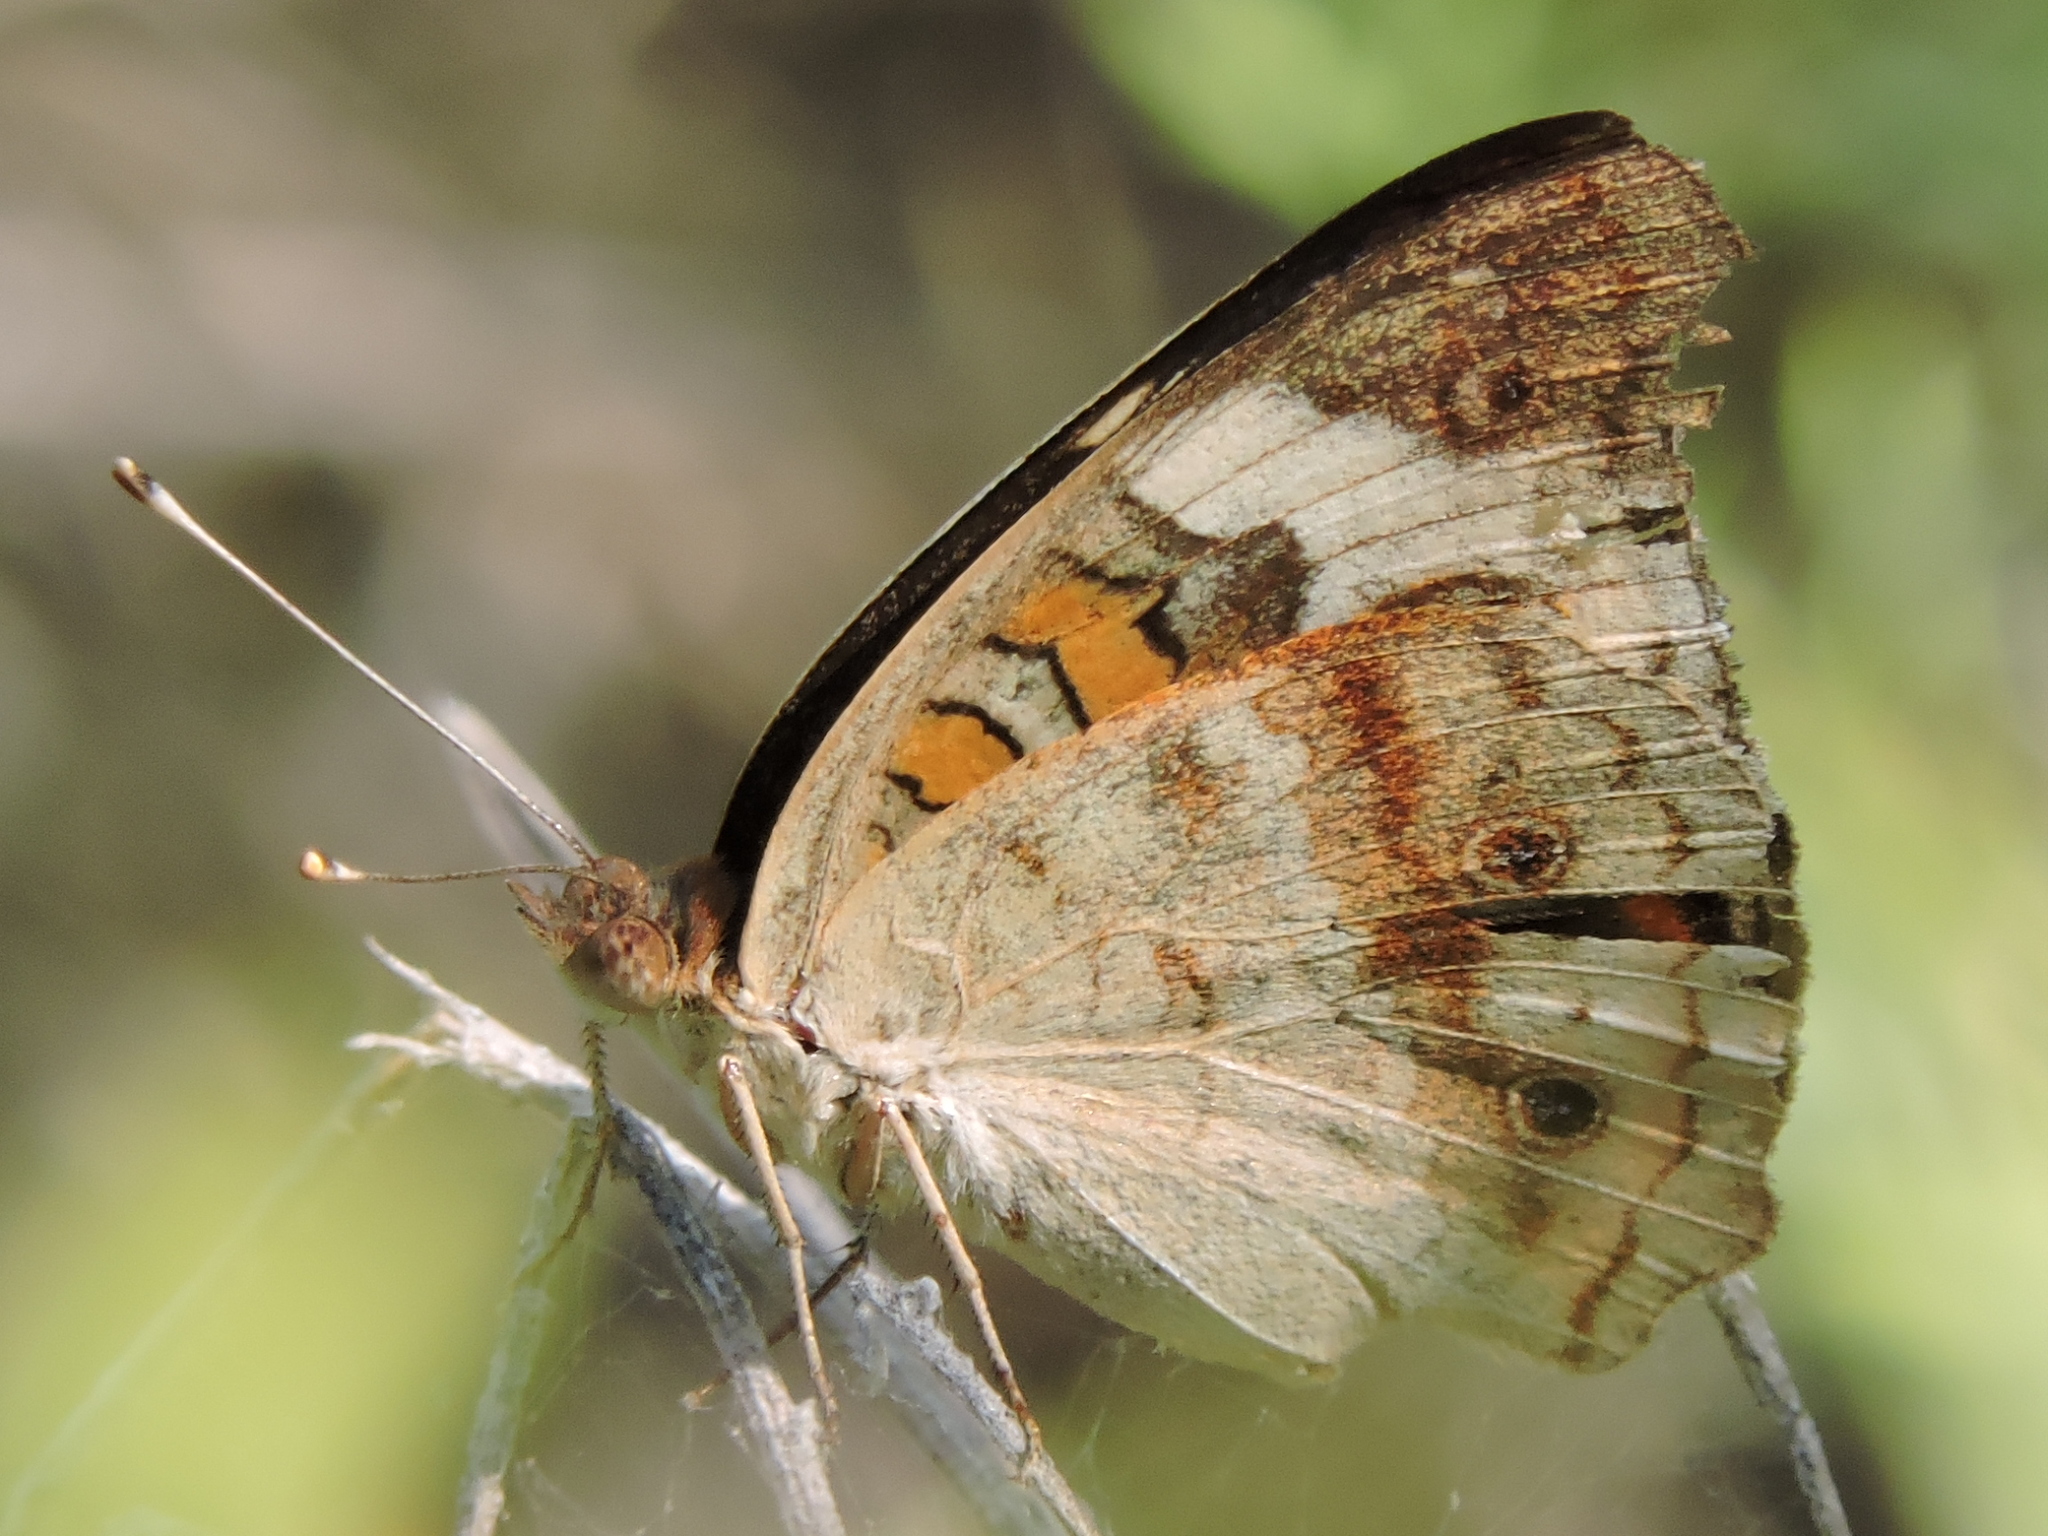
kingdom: Animalia
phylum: Arthropoda
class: Insecta
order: Lepidoptera
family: Nymphalidae
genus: Junonia
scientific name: Junonia coenia
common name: Common buckeye
